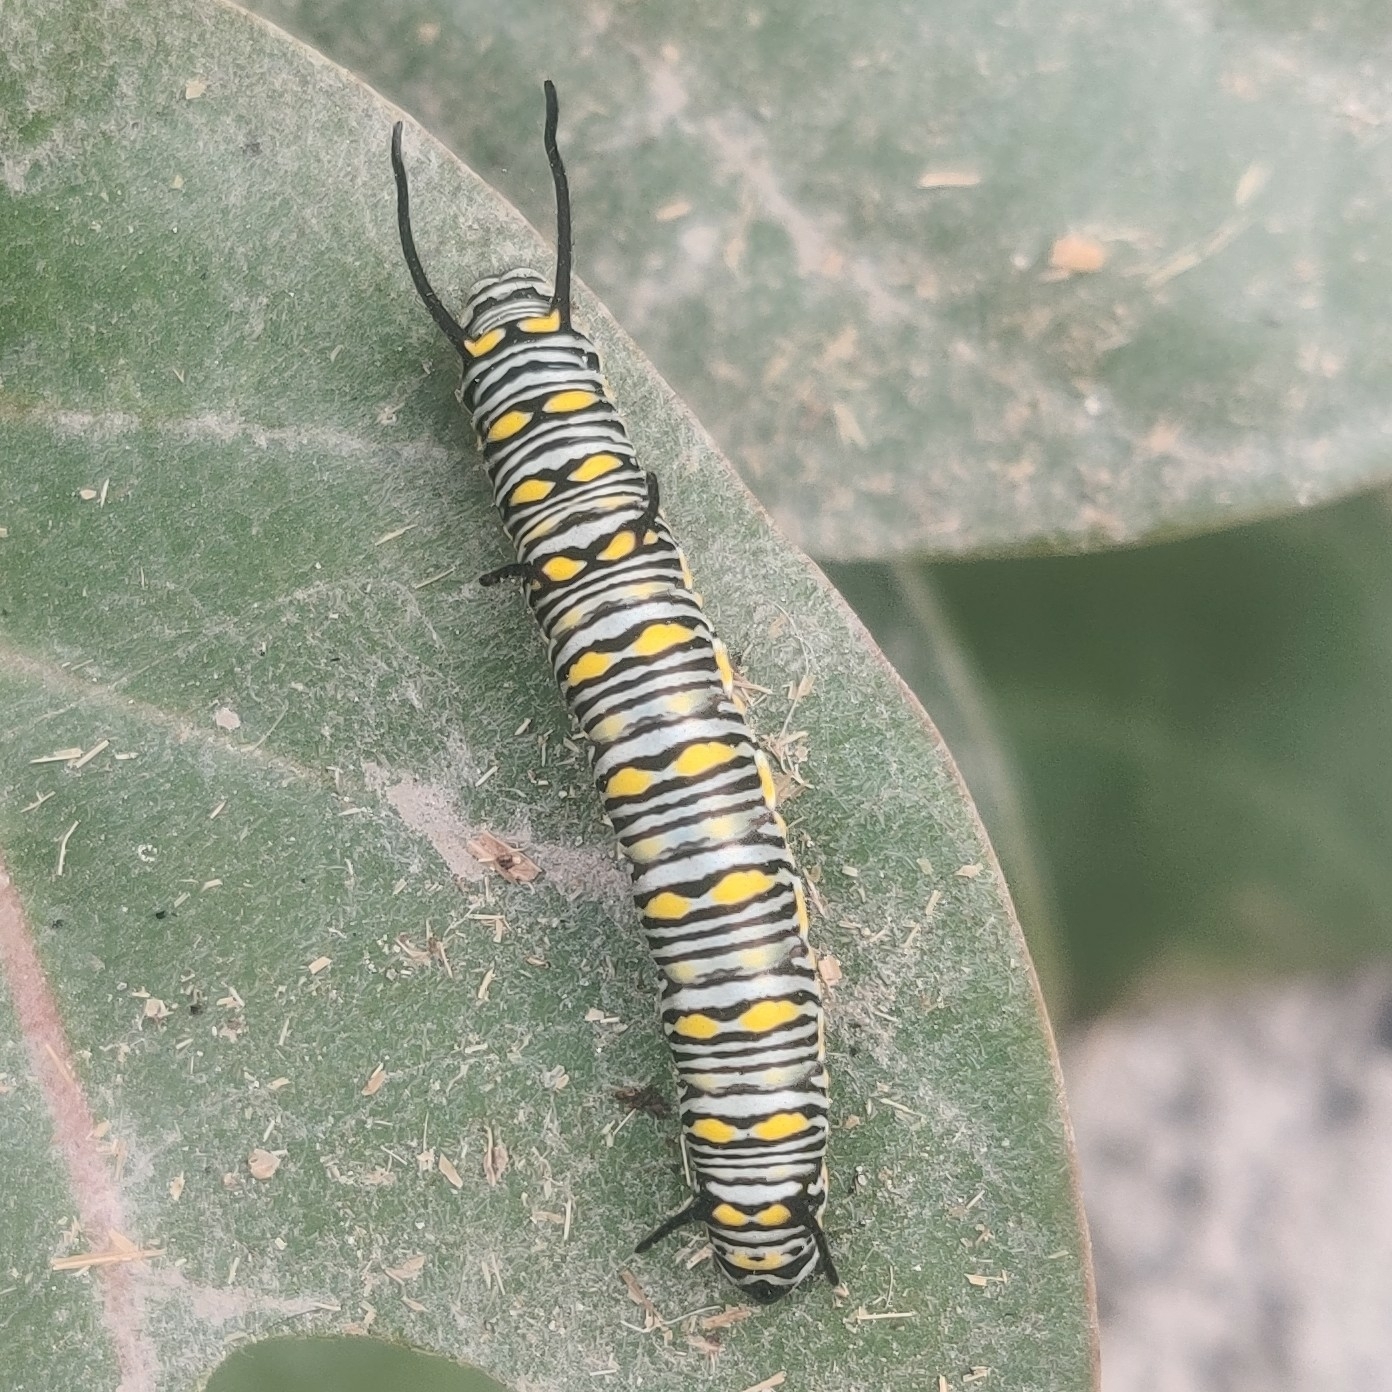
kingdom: Animalia
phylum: Arthropoda
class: Insecta
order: Lepidoptera
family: Nymphalidae
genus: Danaus
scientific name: Danaus chrysippus
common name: Plain tiger
